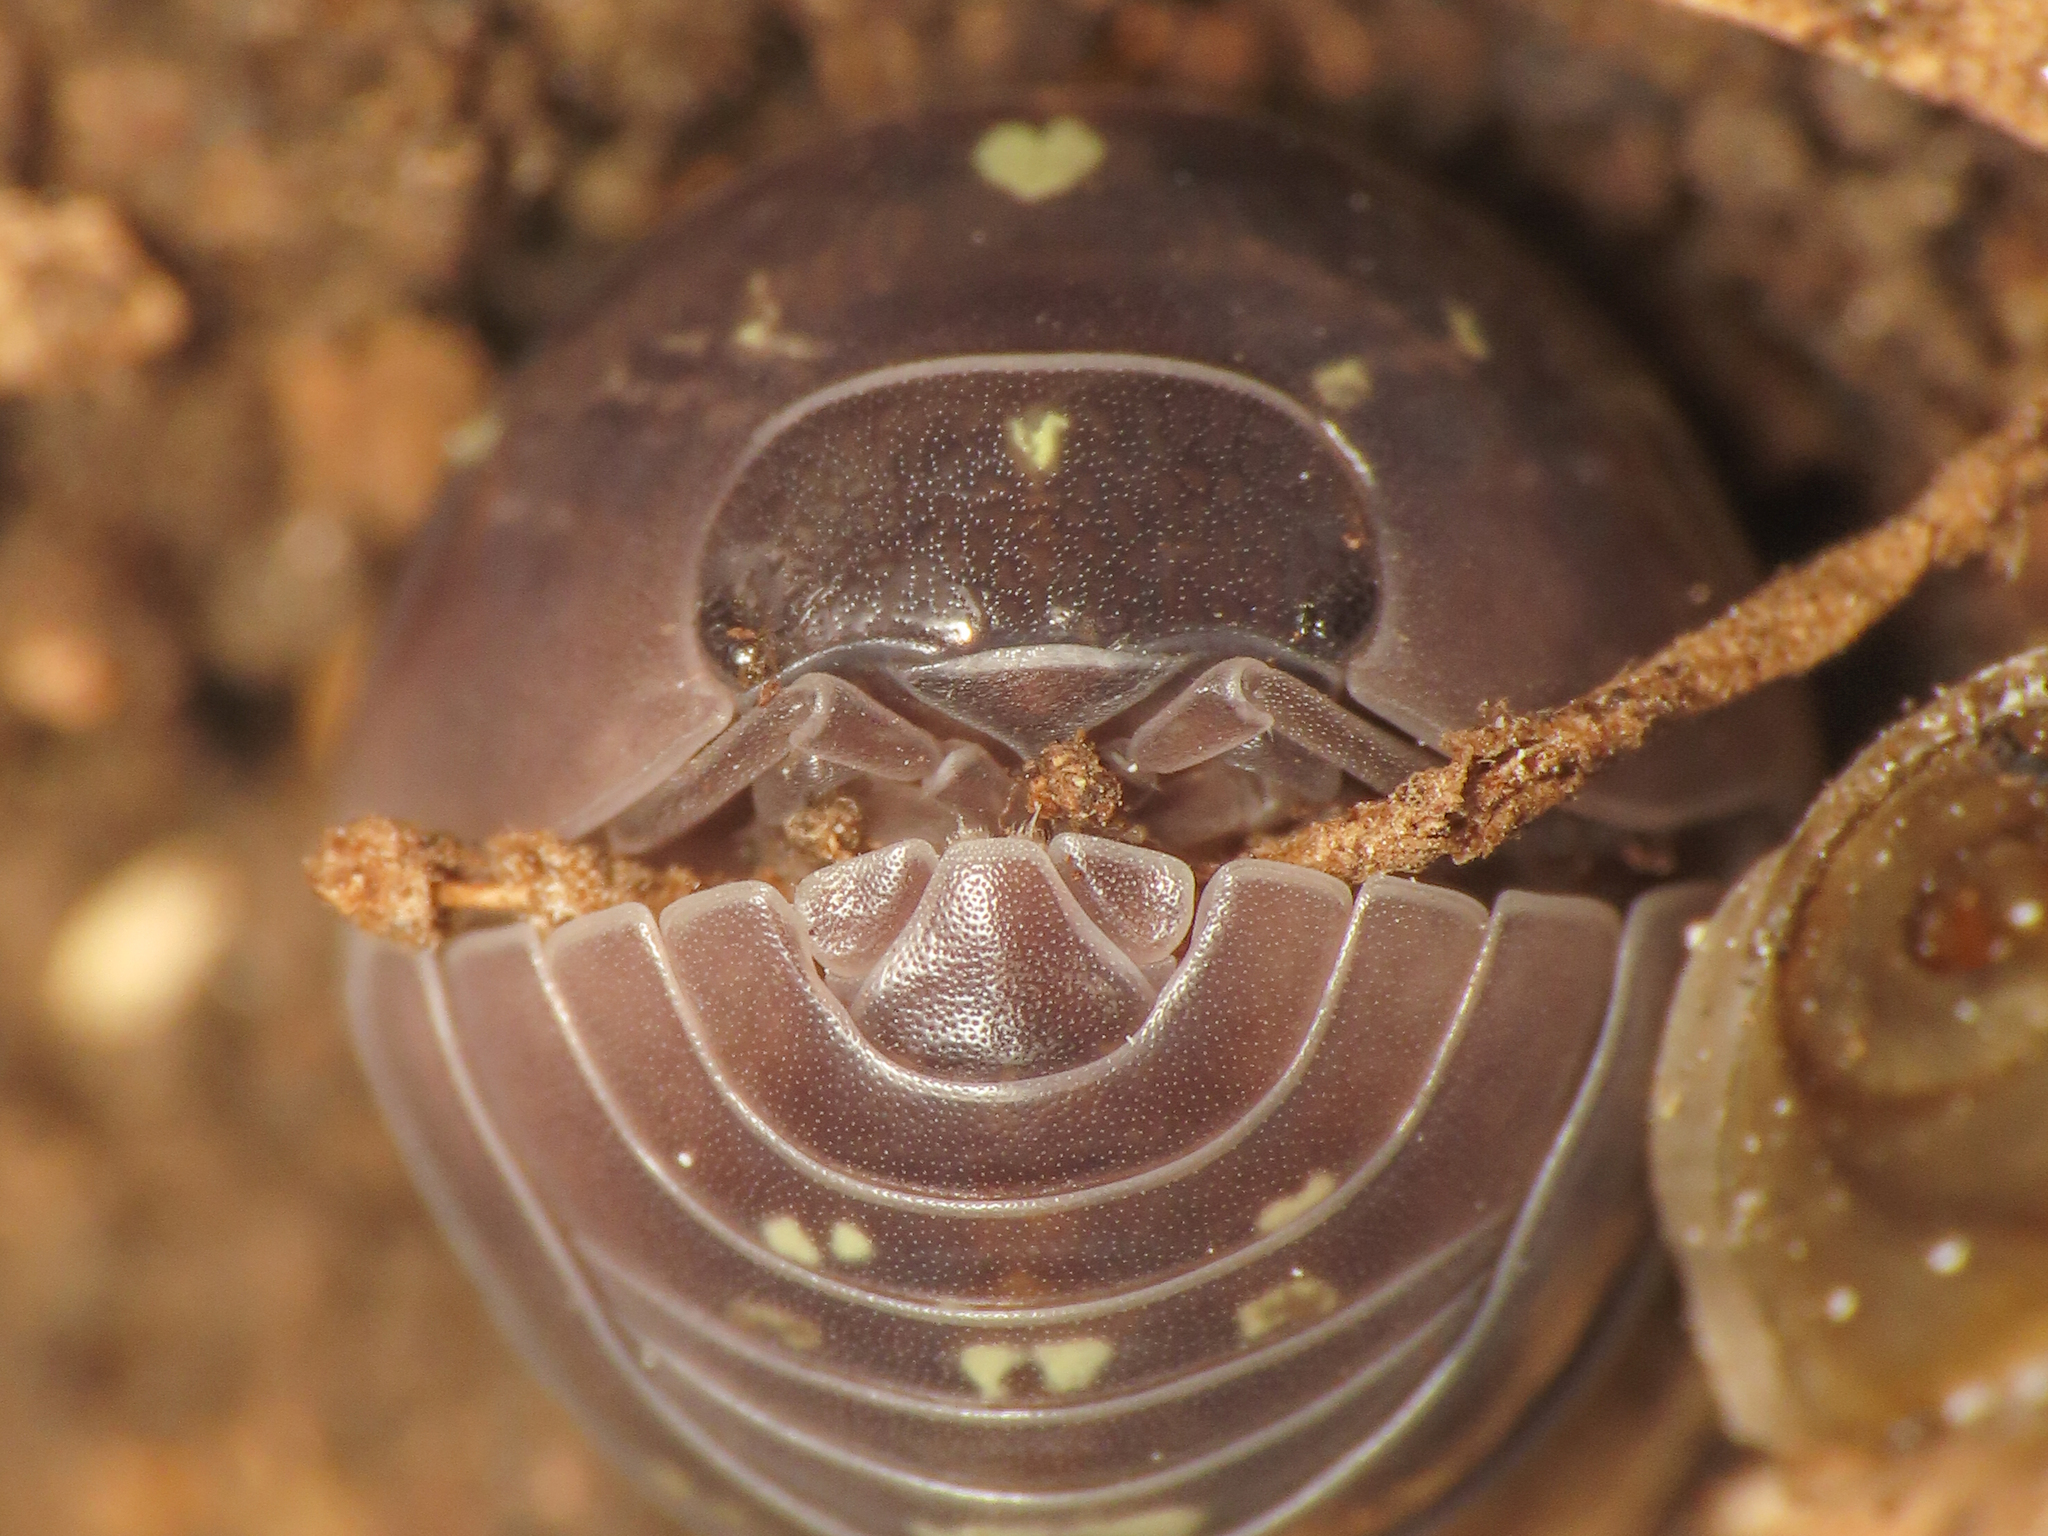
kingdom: Animalia
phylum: Arthropoda
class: Malacostraca
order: Isopoda
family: Armadillidiidae
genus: Armadillidium
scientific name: Armadillidium vulgare
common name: Common pill woodlouse
